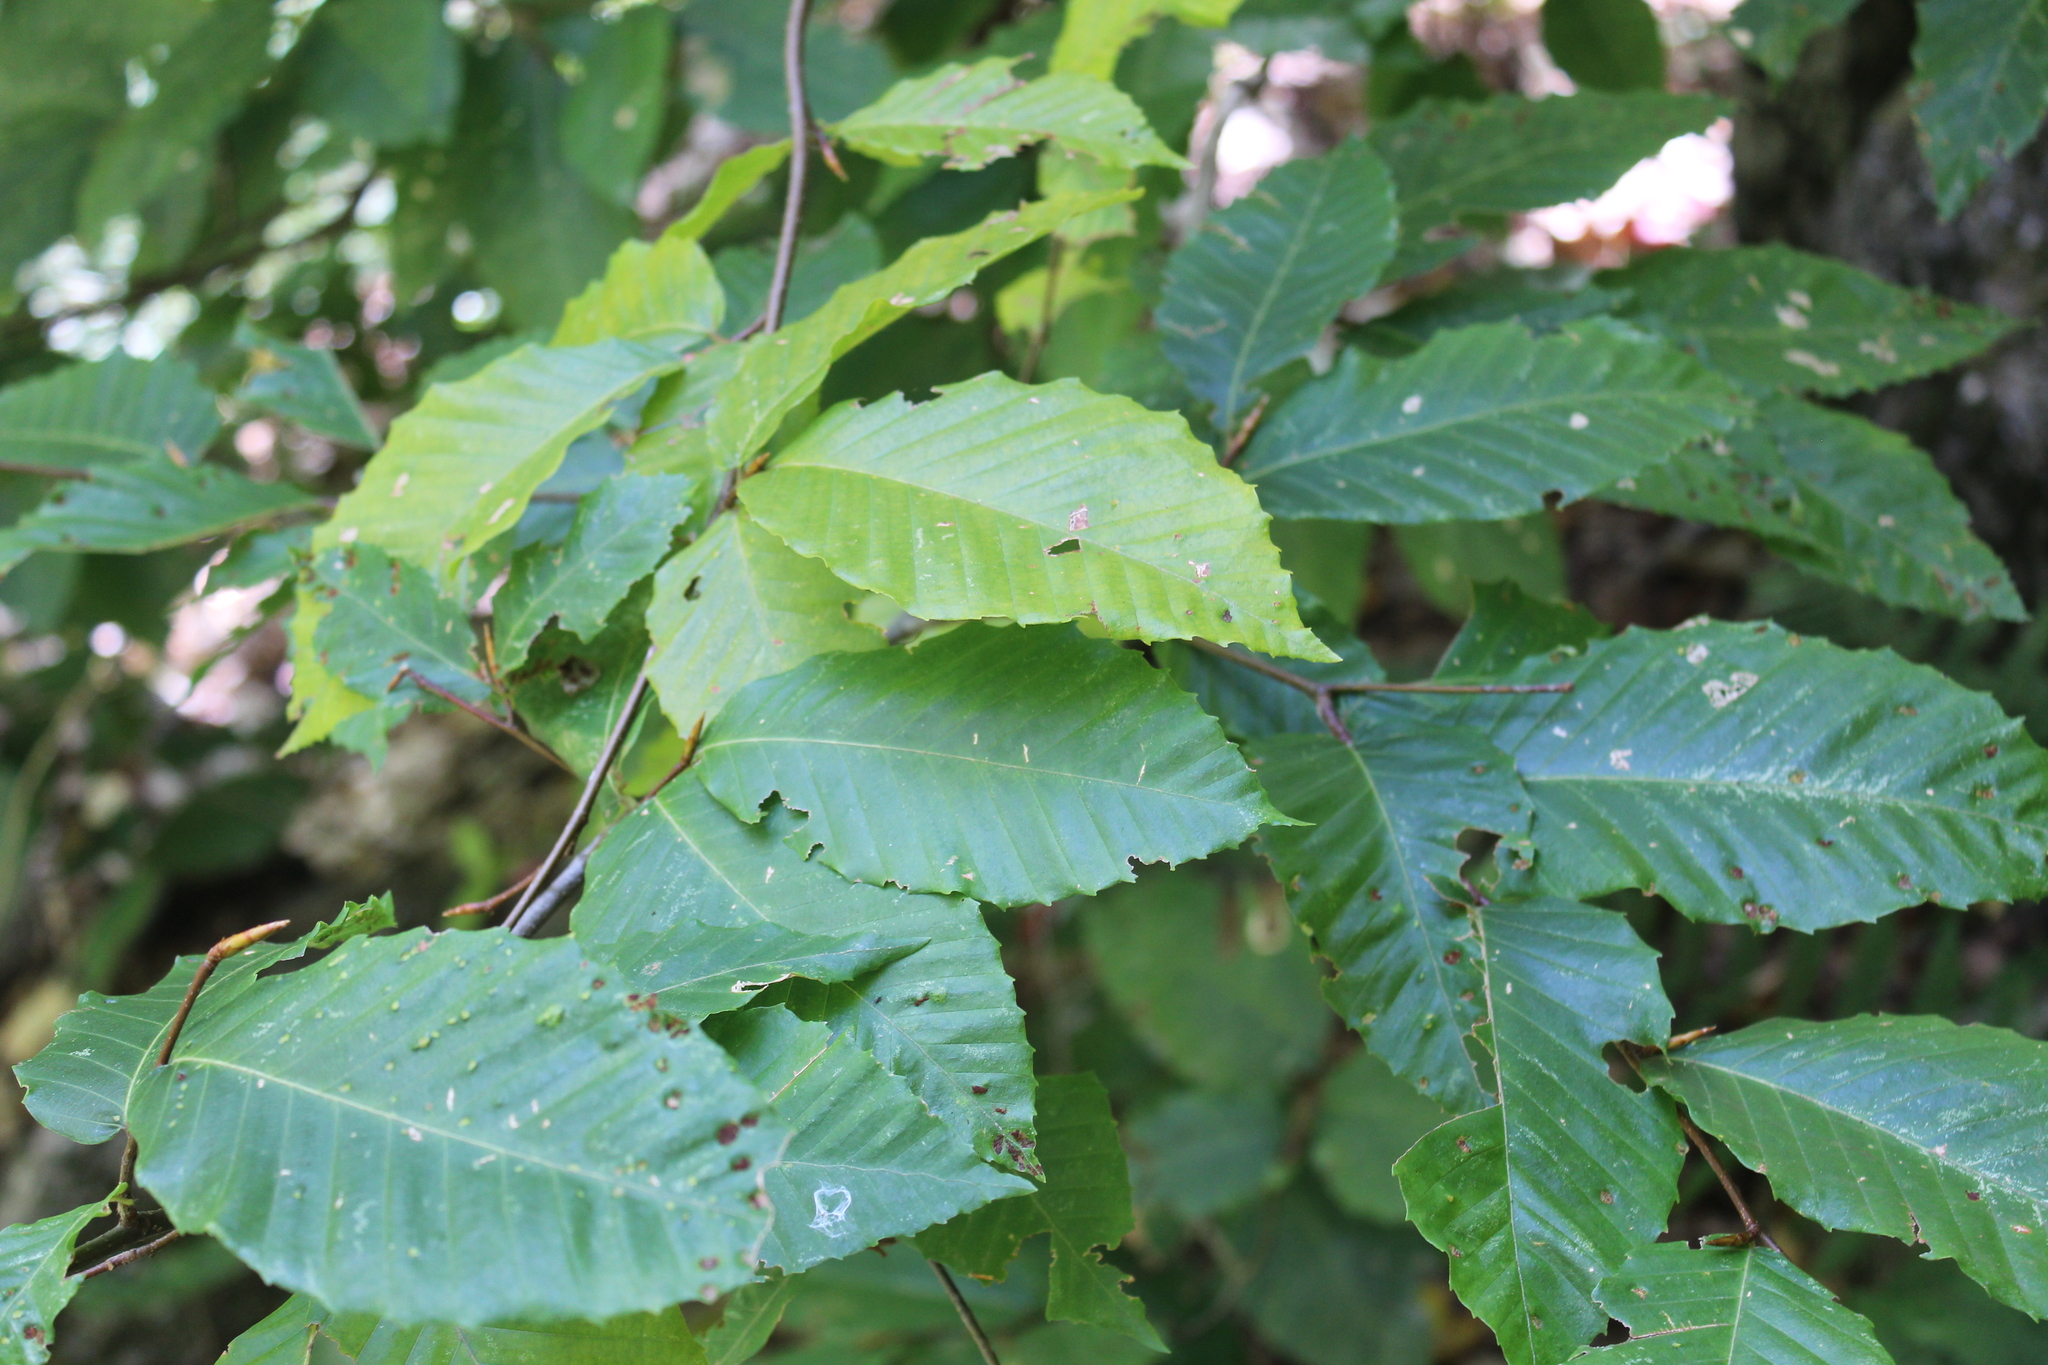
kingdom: Plantae
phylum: Tracheophyta
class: Magnoliopsida
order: Fagales
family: Fagaceae
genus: Fagus
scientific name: Fagus grandifolia
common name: American beech
